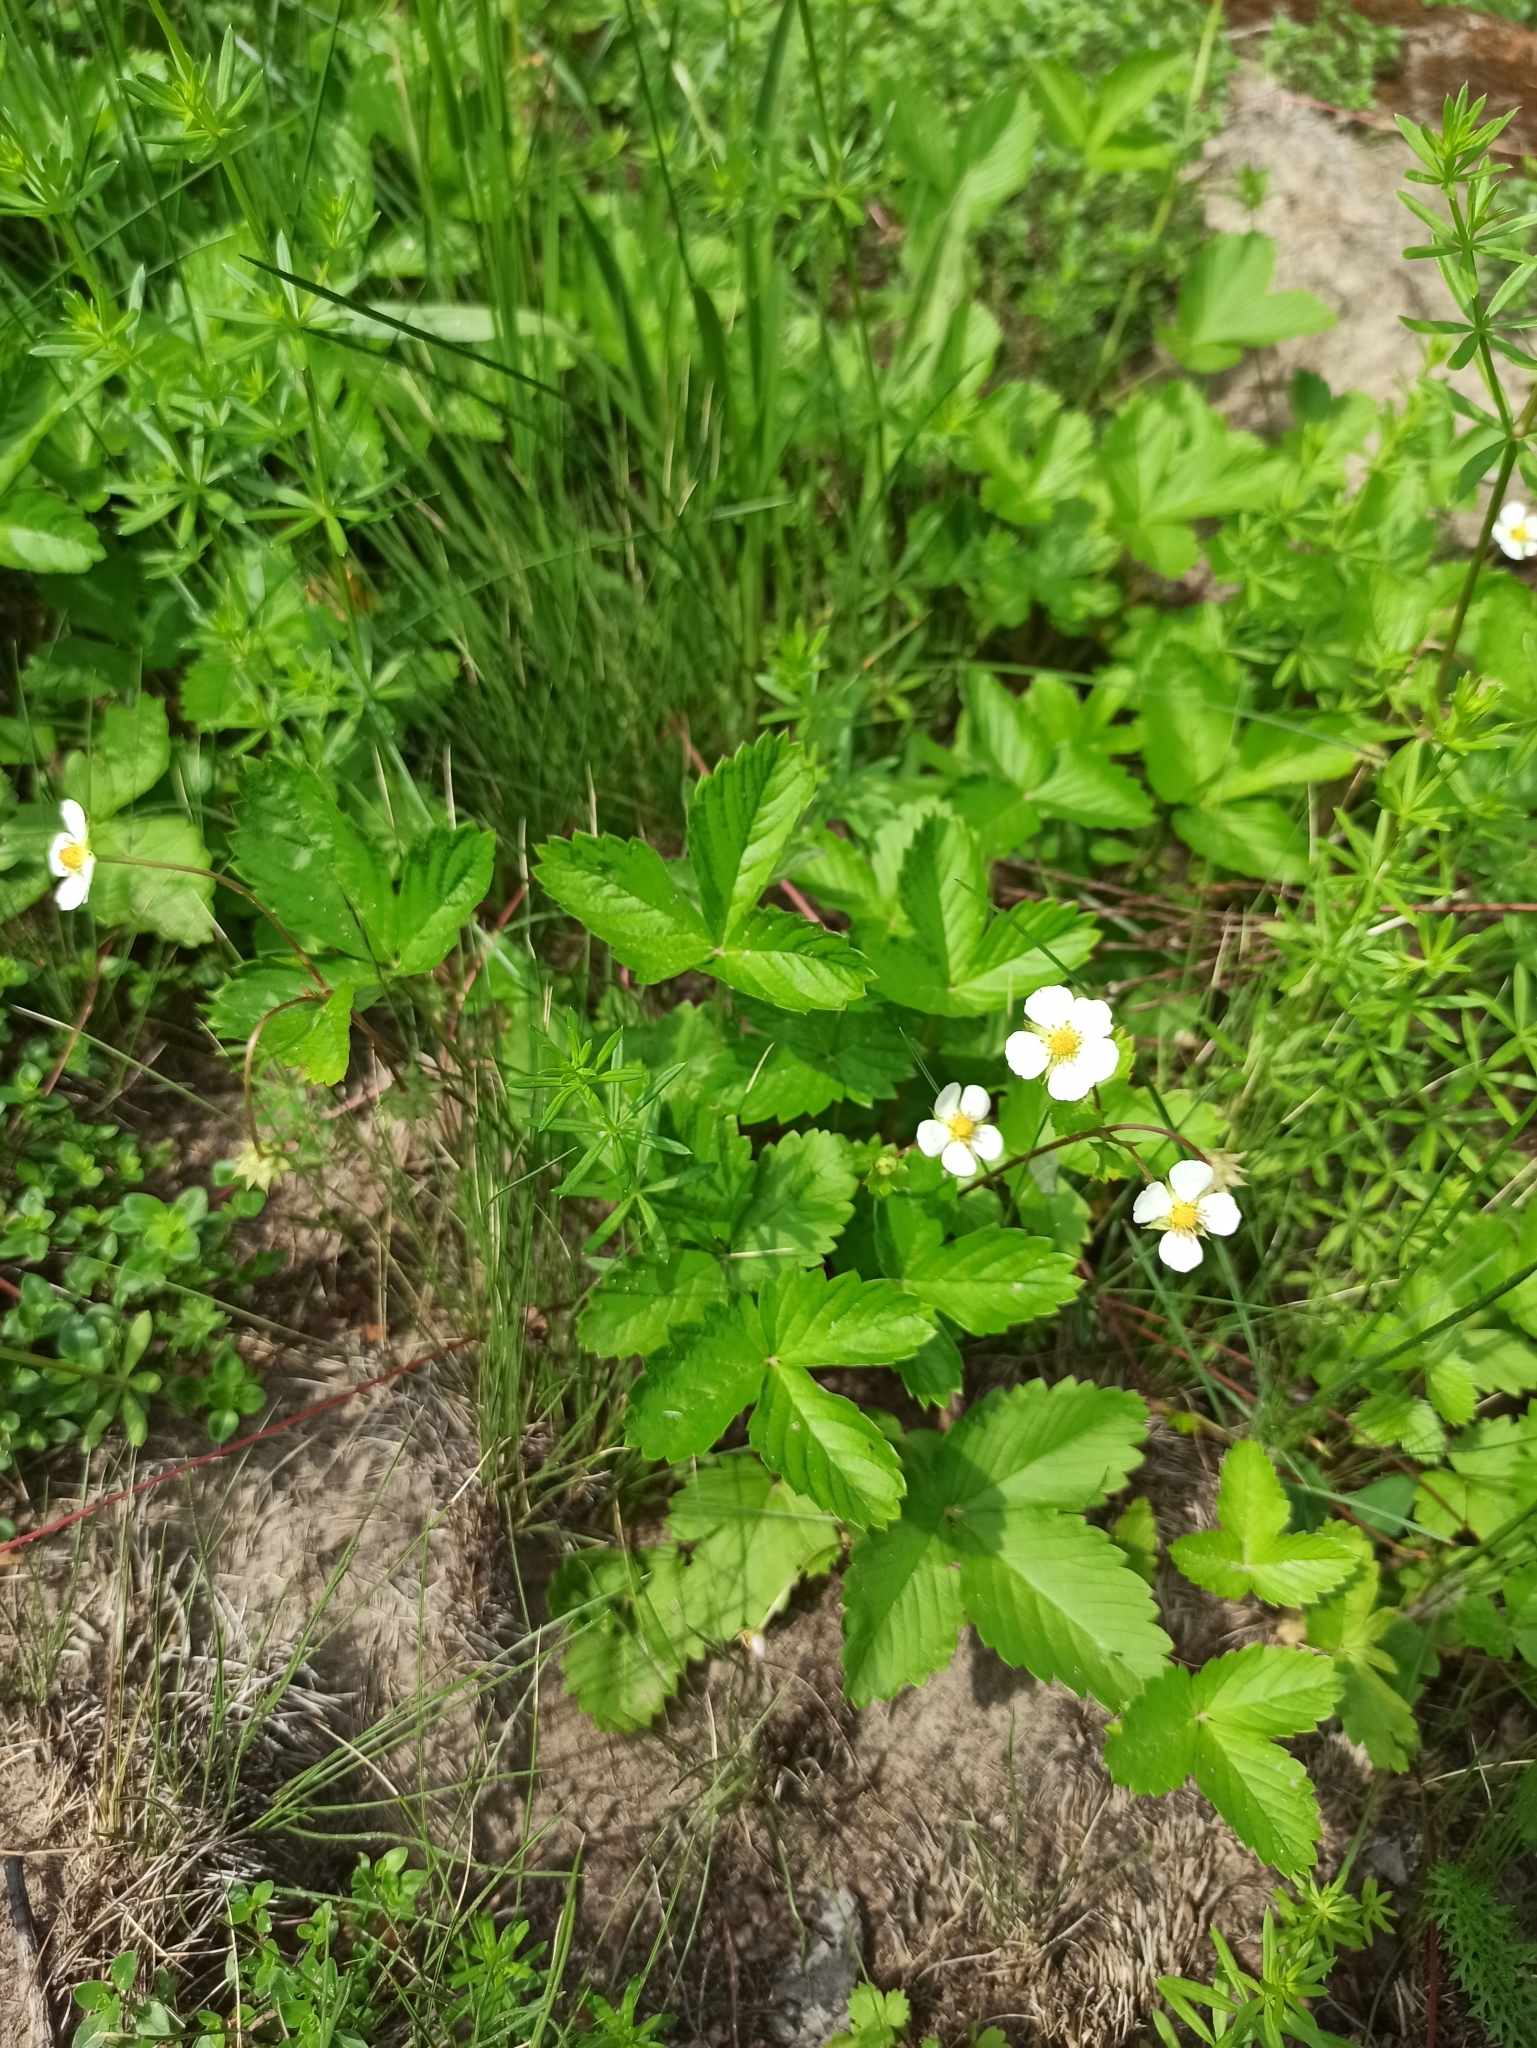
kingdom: Plantae
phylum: Tracheophyta
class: Magnoliopsida
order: Rosales
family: Rosaceae
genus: Fragaria
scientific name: Fragaria vesca
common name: Wild strawberry
